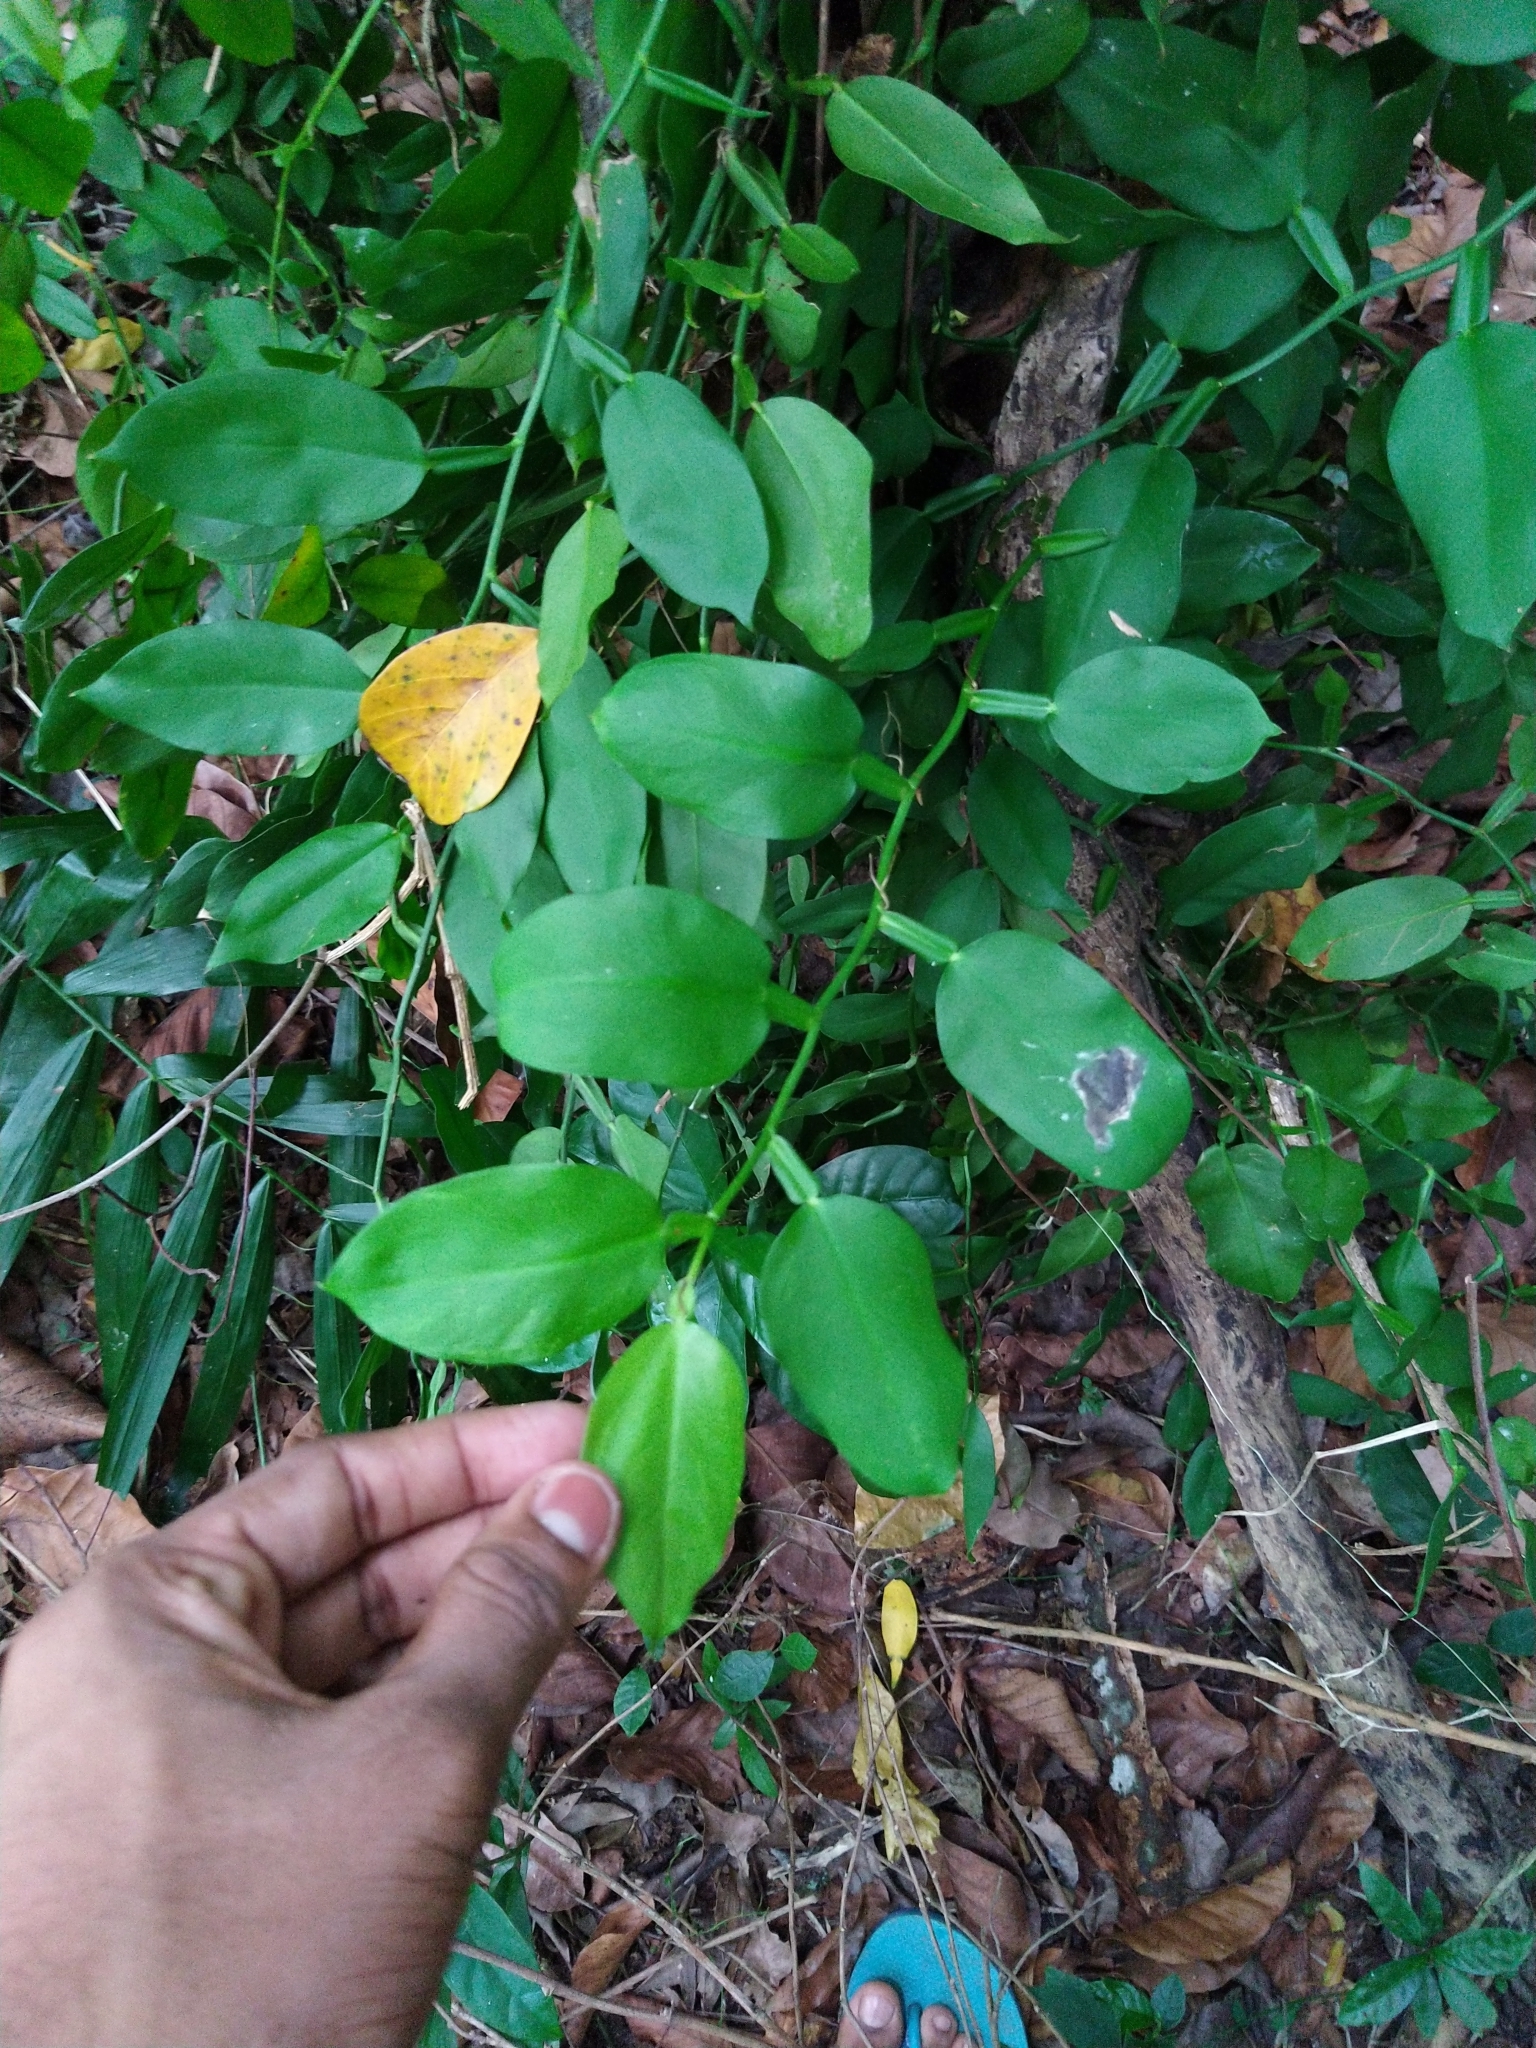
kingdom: Plantae
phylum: Tracheophyta
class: Liliopsida
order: Alismatales
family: Araceae
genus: Pothos
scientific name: Pothos chinensis
